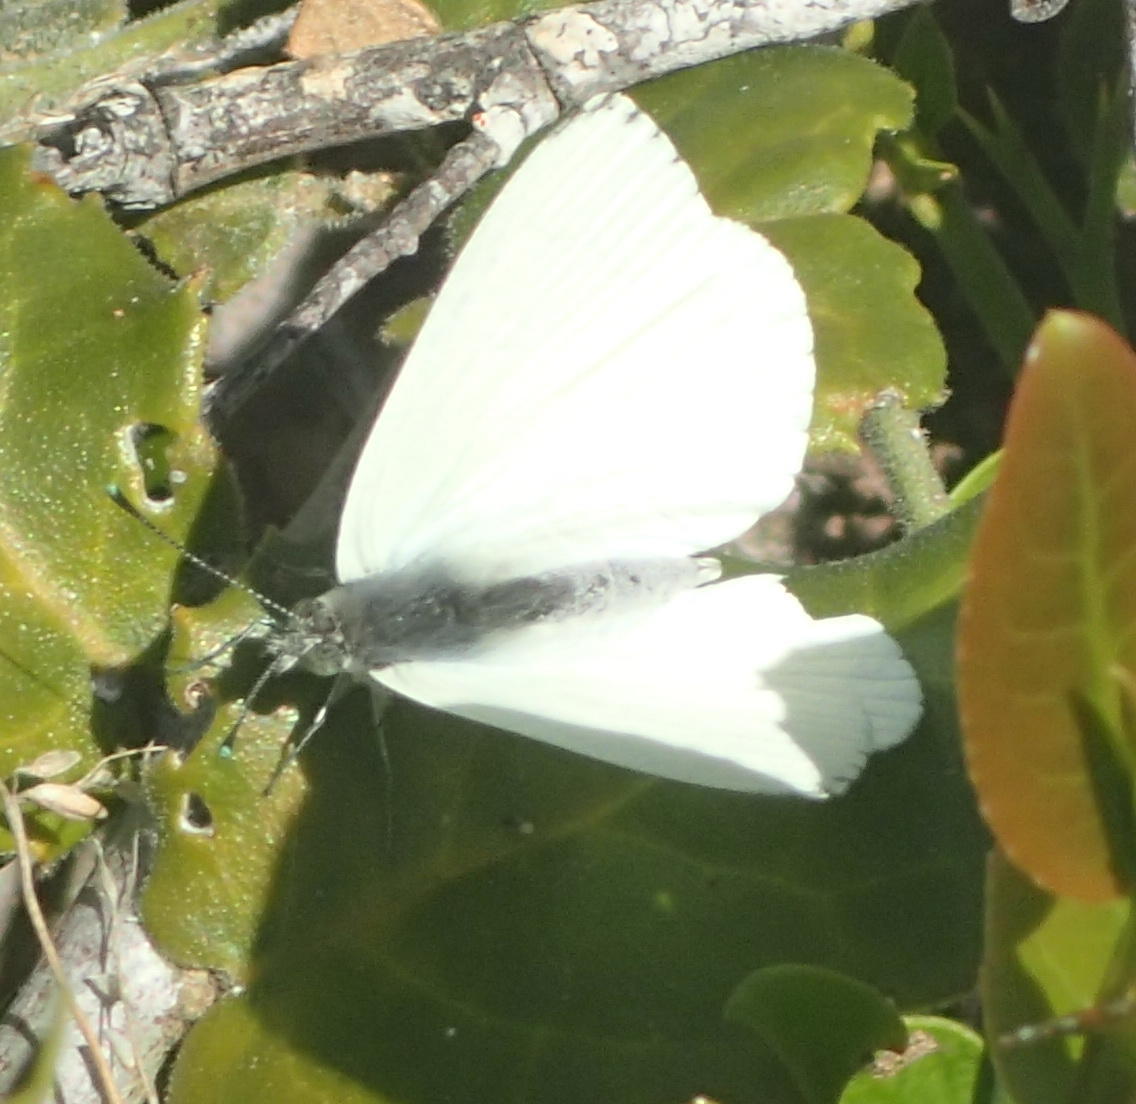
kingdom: Animalia
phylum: Arthropoda
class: Insecta
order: Lepidoptera
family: Pieridae
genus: Dixeia
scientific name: Dixeia charina
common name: African small white
